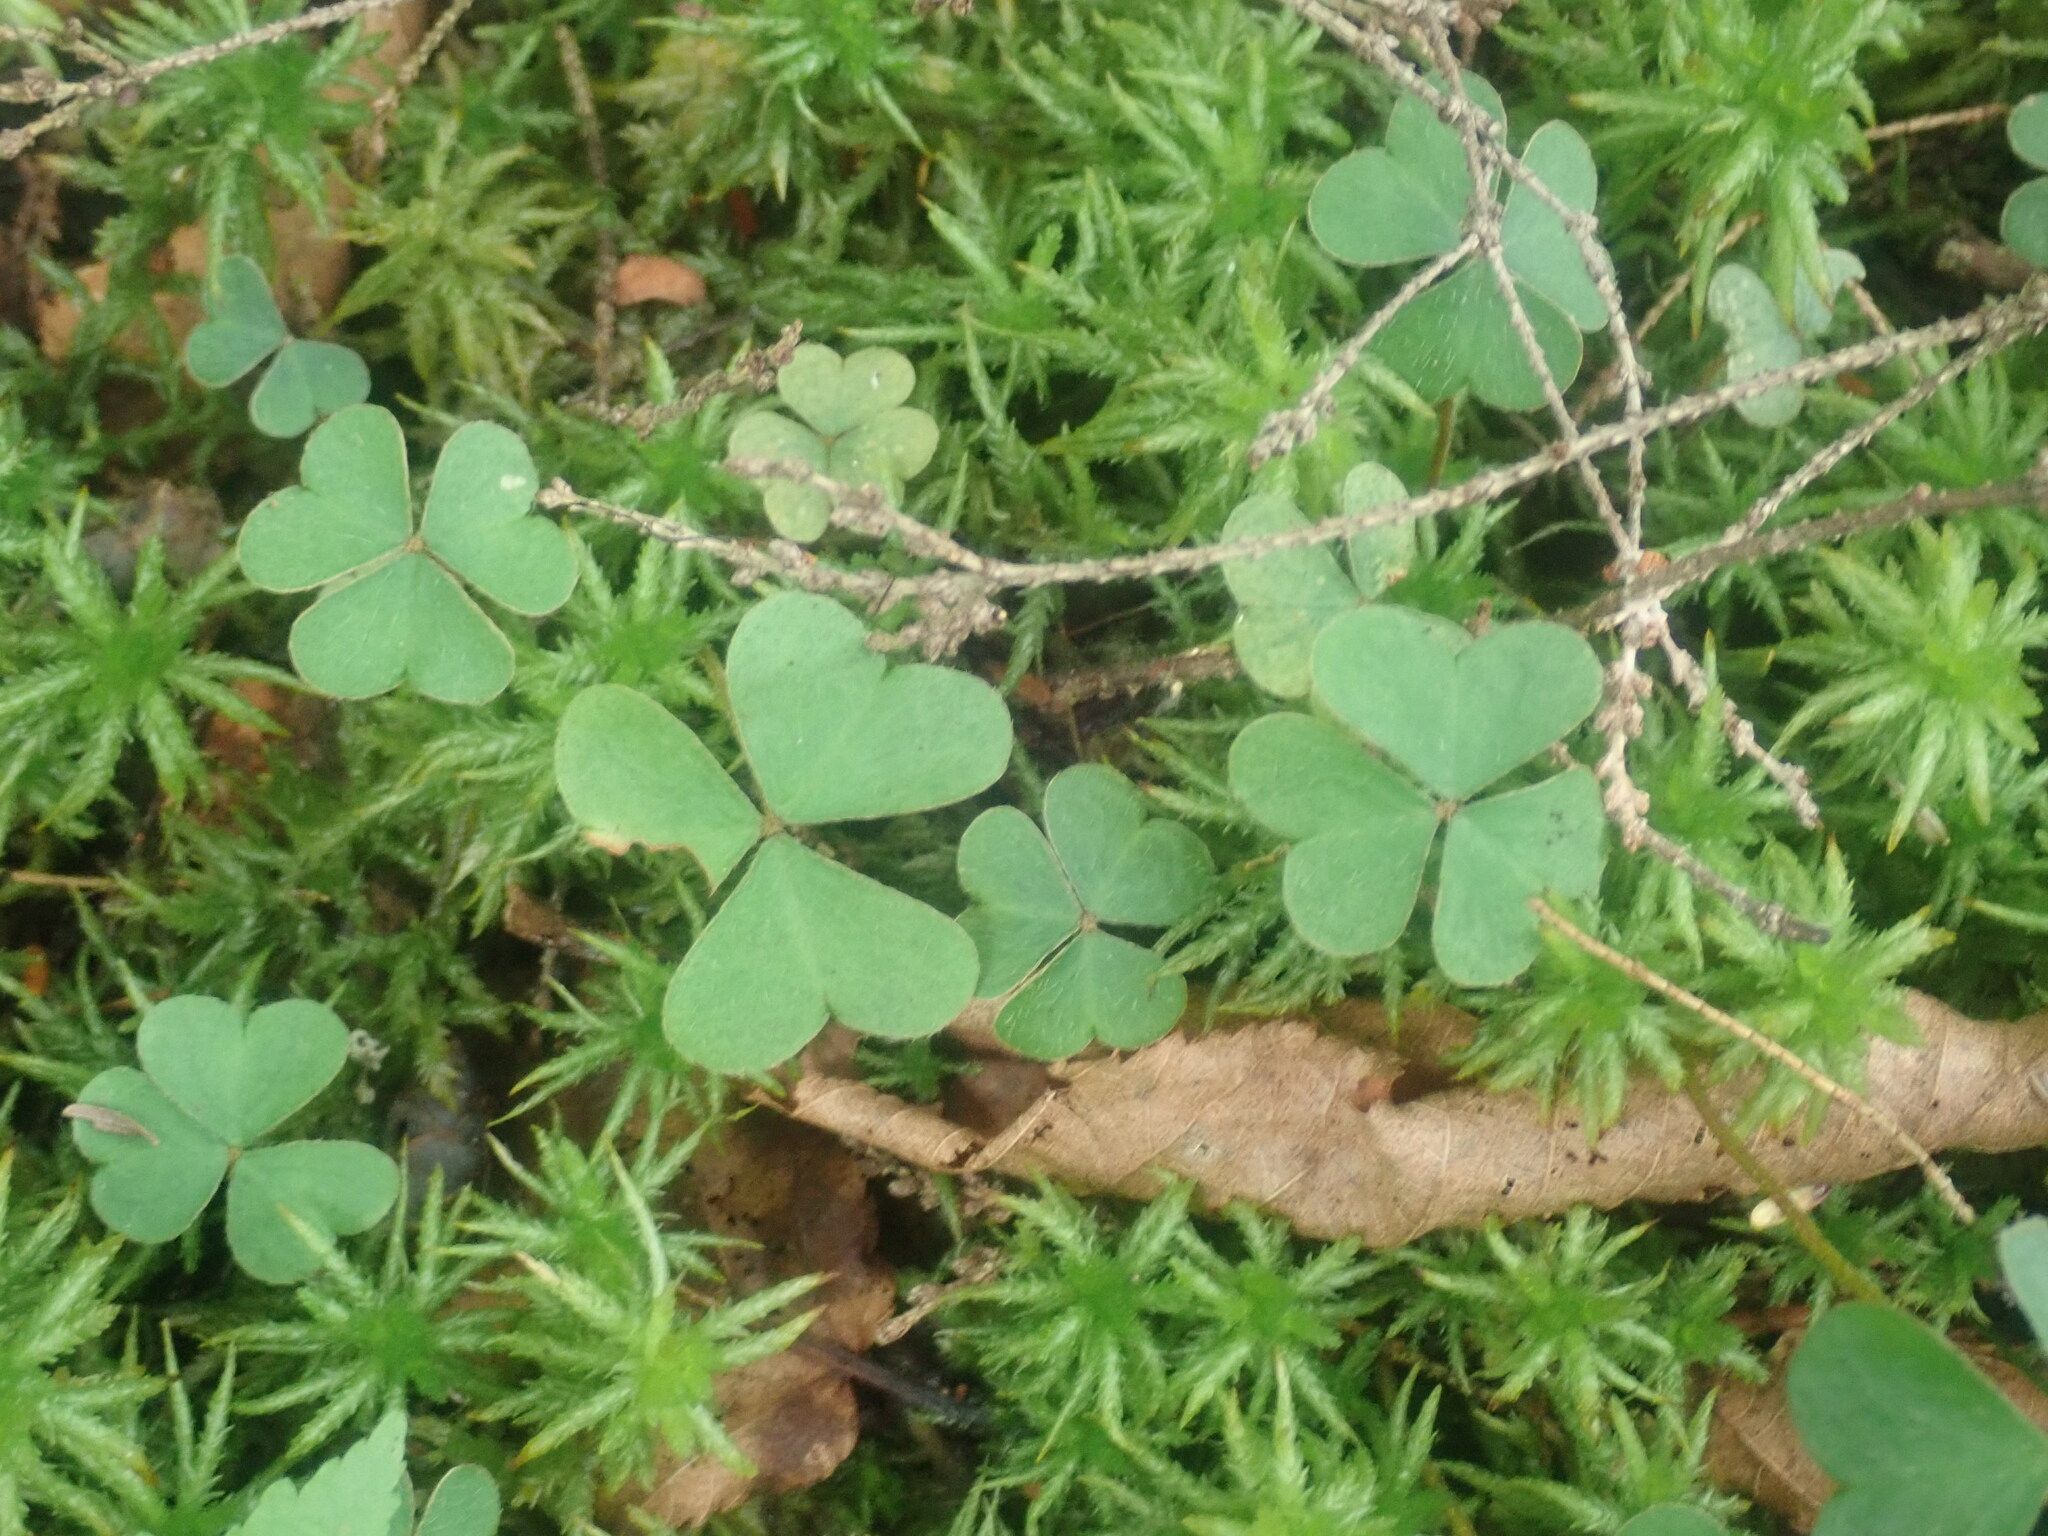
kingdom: Plantae
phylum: Tracheophyta
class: Magnoliopsida
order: Oxalidales
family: Oxalidaceae
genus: Oxalis
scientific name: Oxalis montana
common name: American wood-sorrel
